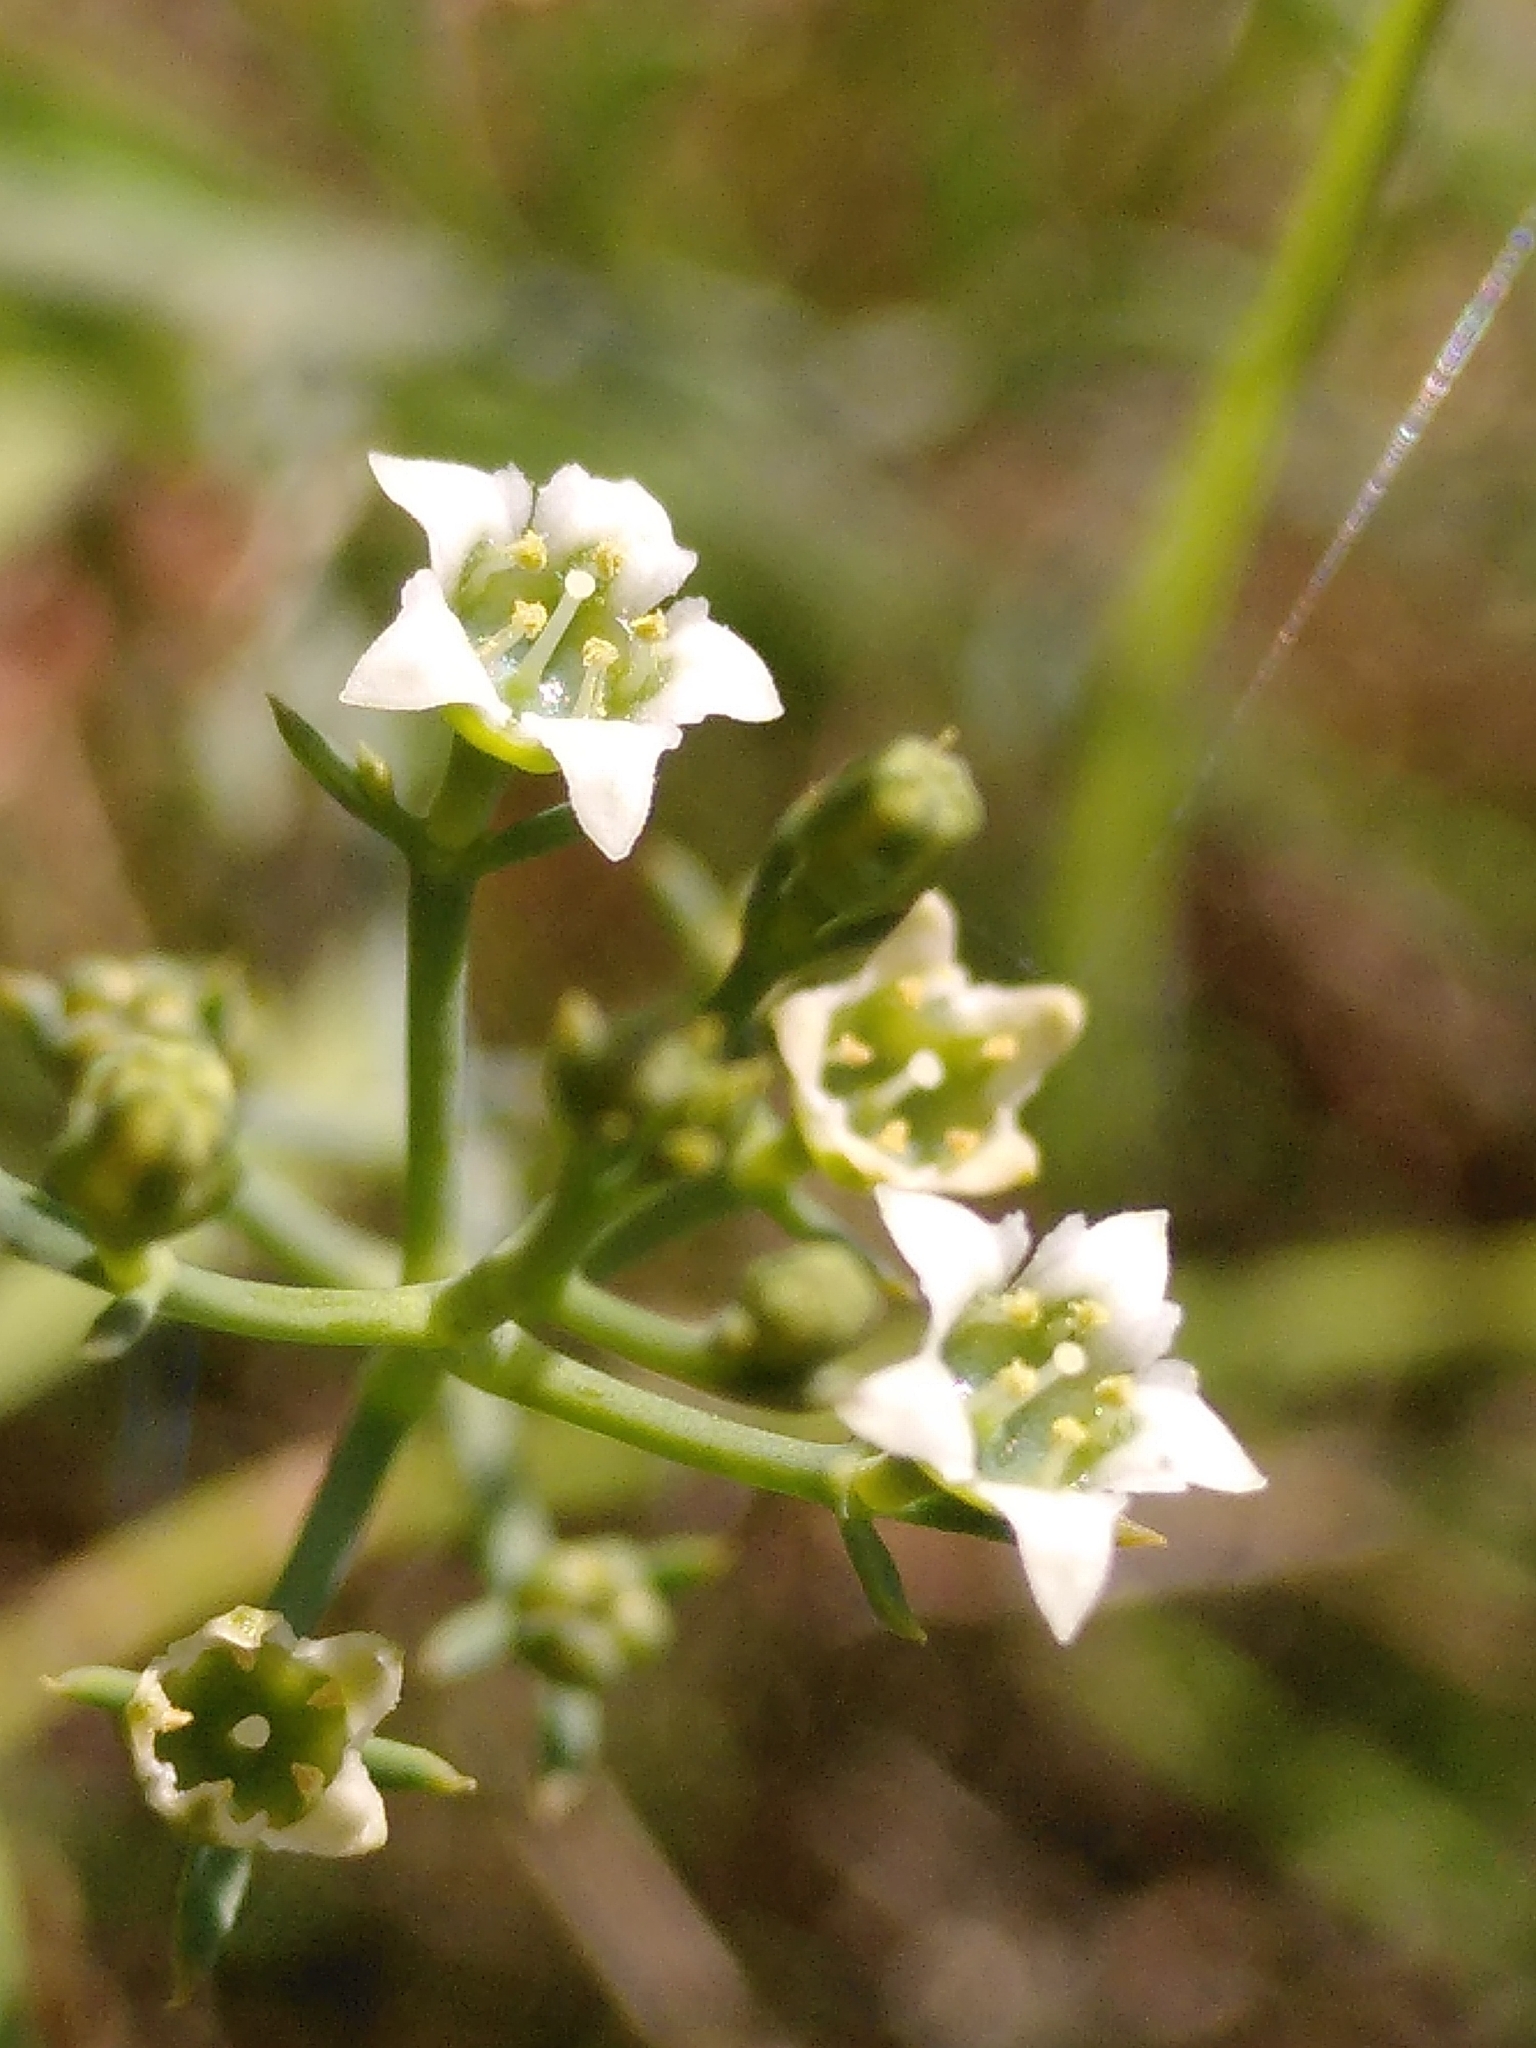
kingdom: Plantae
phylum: Tracheophyta
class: Magnoliopsida
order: Santalales
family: Thesiaceae
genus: Thesium
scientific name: Thesium divaricatum
